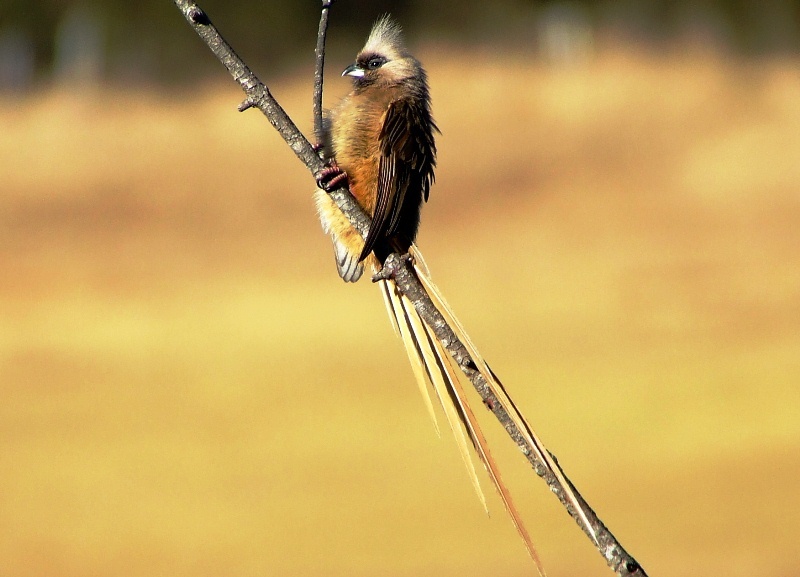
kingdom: Animalia
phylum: Chordata
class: Aves
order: Coliiformes
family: Coliidae
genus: Colius
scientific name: Colius striatus
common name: Speckled mousebird
